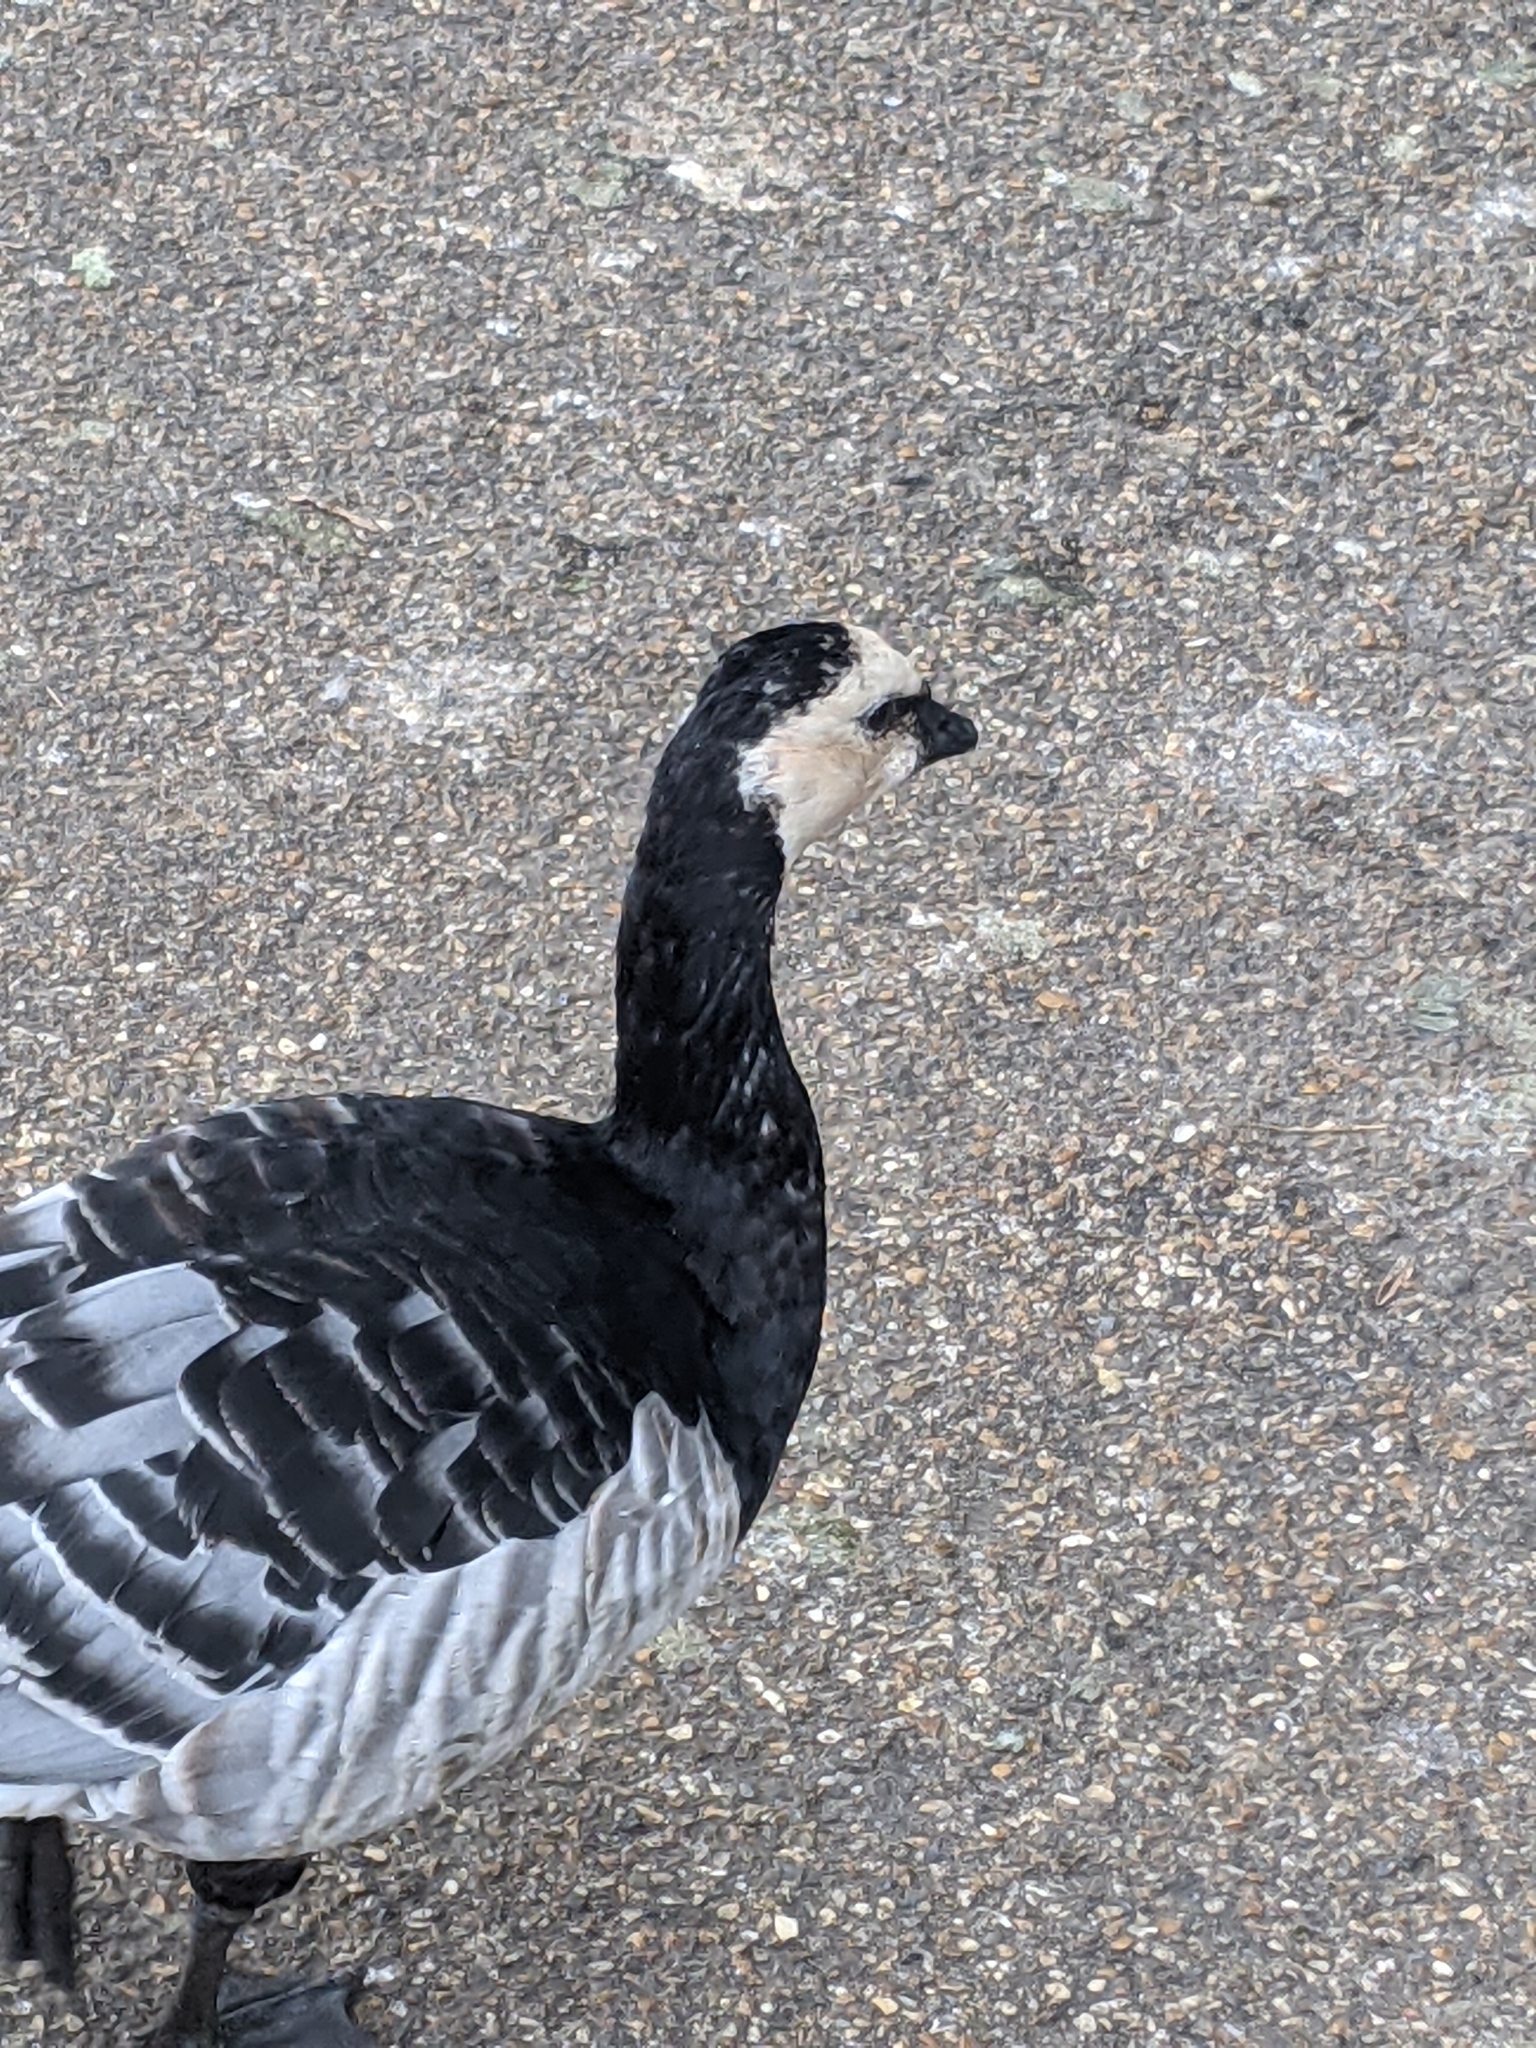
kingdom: Animalia
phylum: Chordata
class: Aves
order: Anseriformes
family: Anatidae
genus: Branta
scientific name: Branta leucopsis
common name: Barnacle goose
